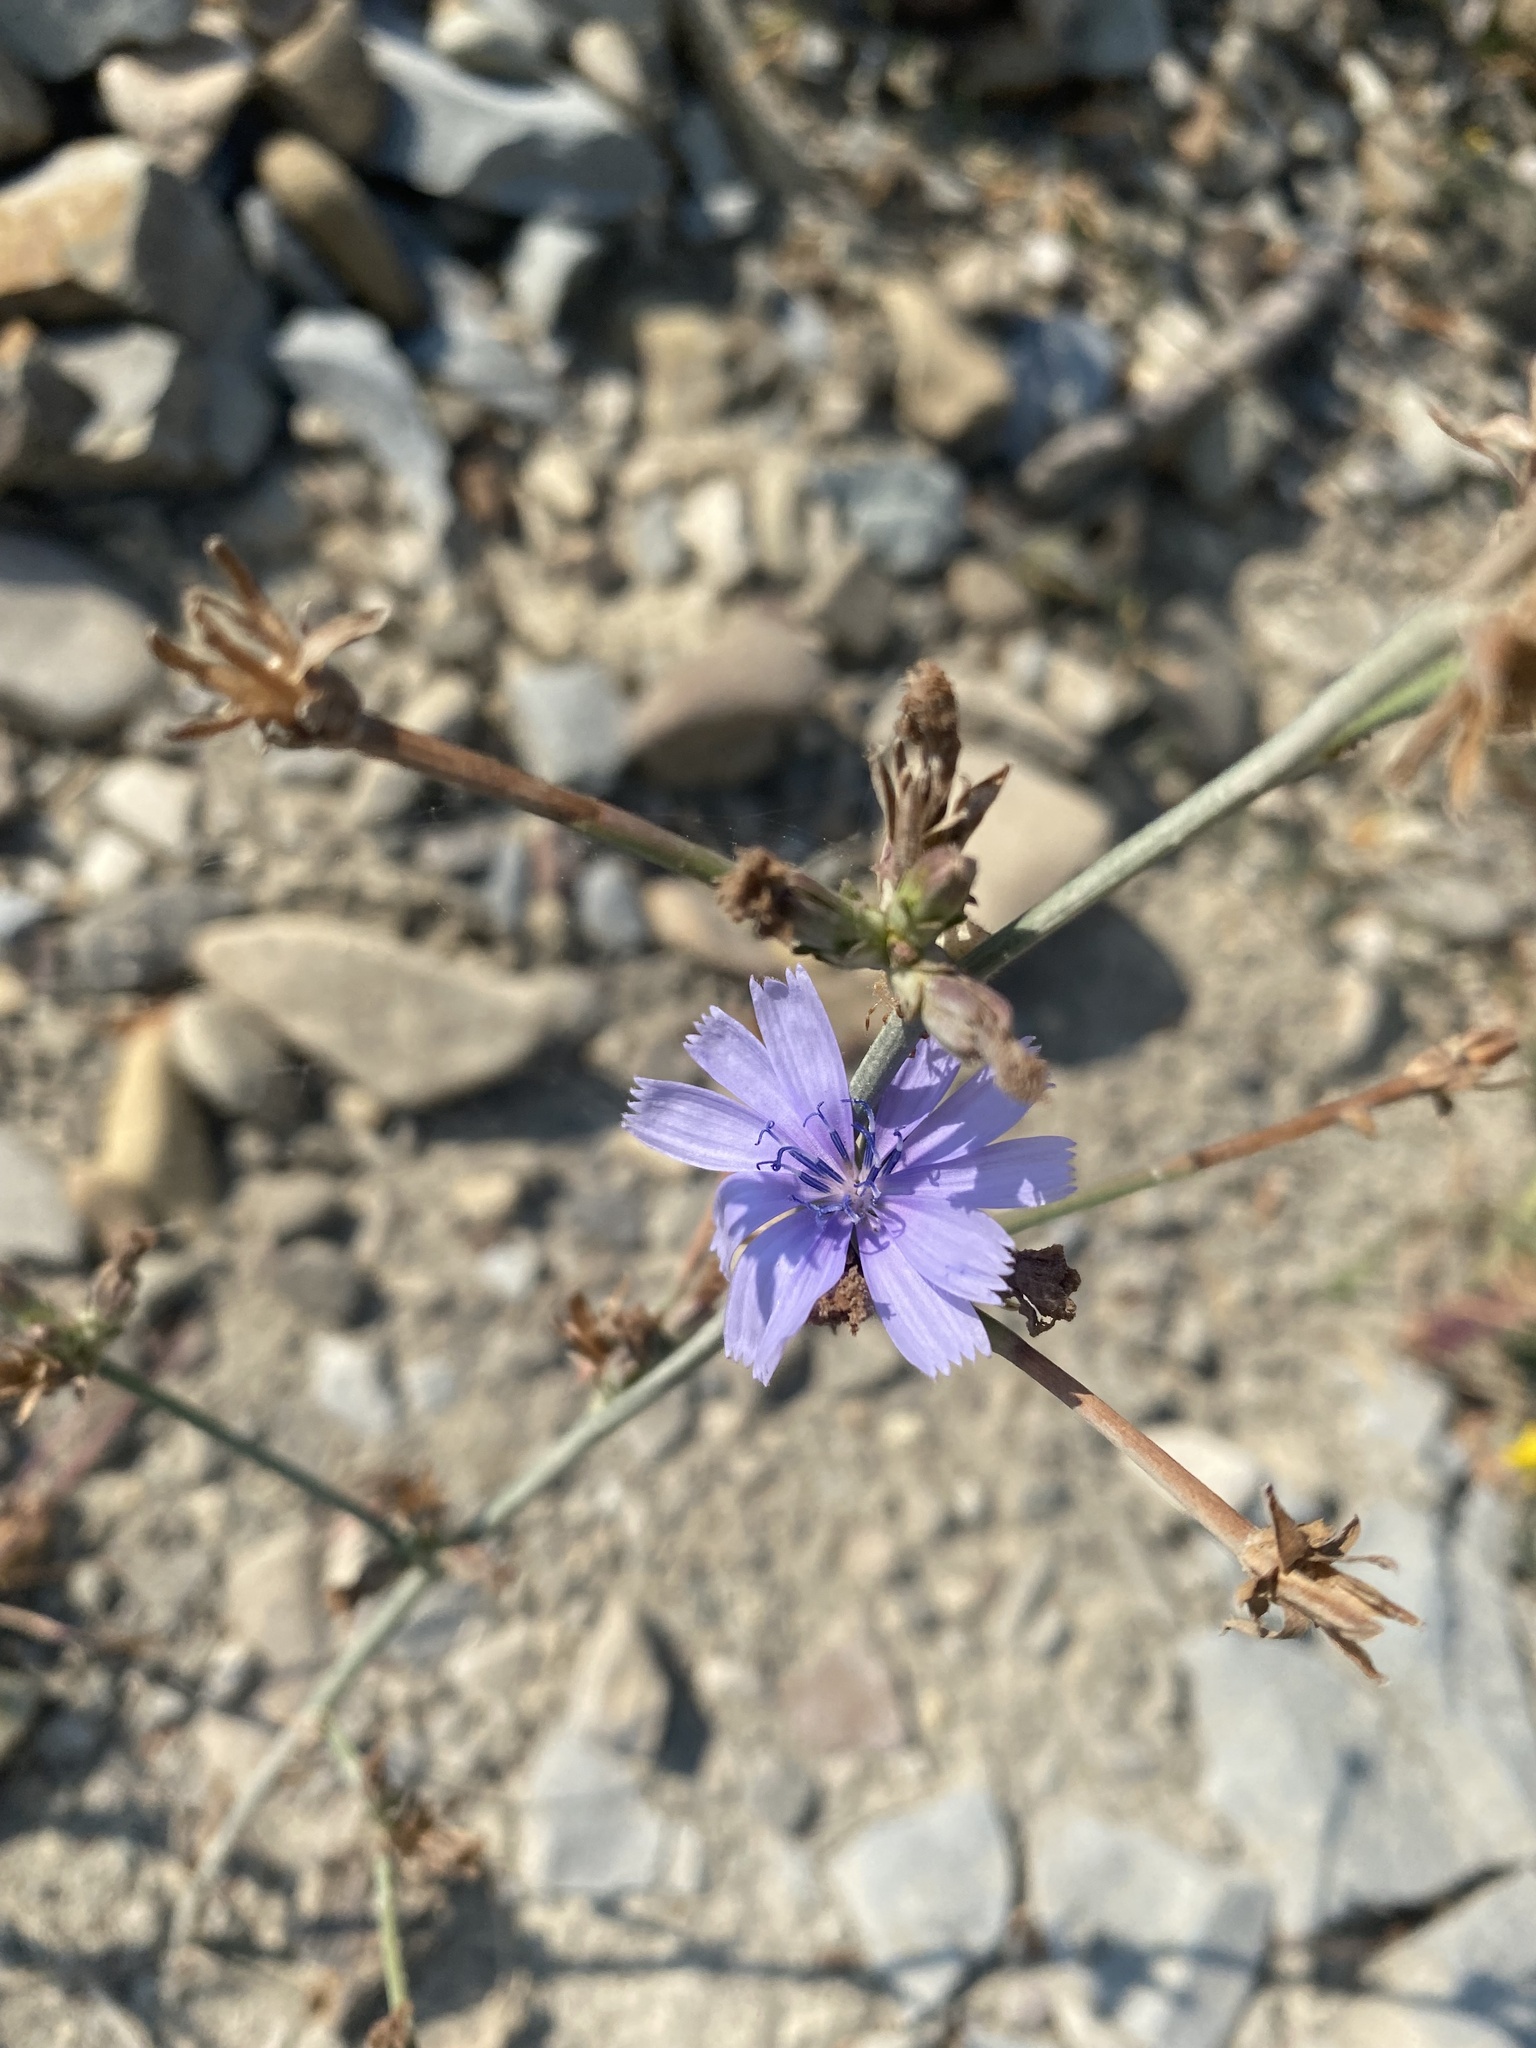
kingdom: Plantae
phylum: Tracheophyta
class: Magnoliopsida
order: Asterales
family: Asteraceae
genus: Cichorium
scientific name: Cichorium intybus
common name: Chicory
